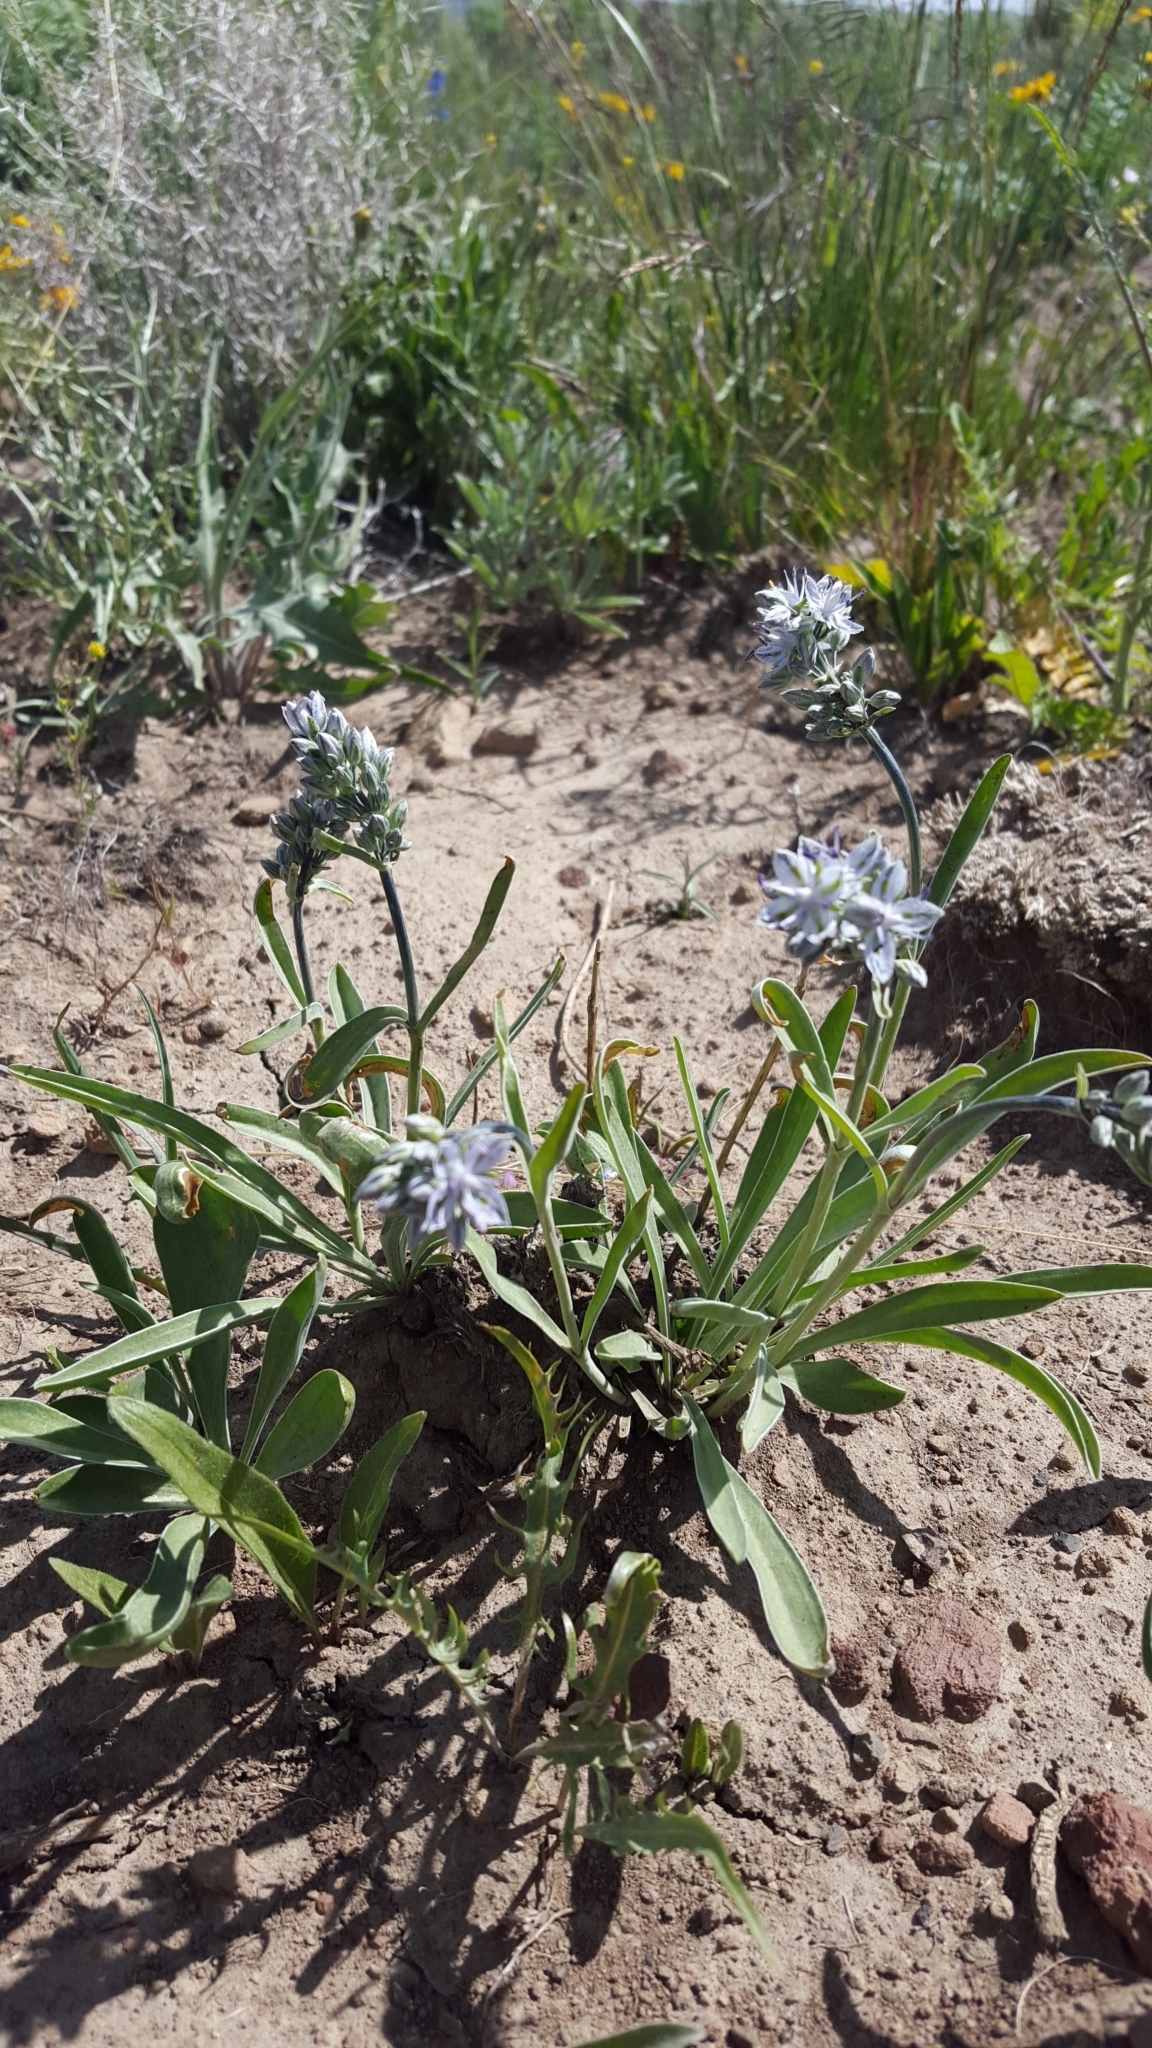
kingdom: Plantae
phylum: Tracheophyta
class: Magnoliopsida
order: Gentianales
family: Gentianaceae
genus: Frasera
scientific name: Frasera albicaulis
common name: Cusick's frasera
